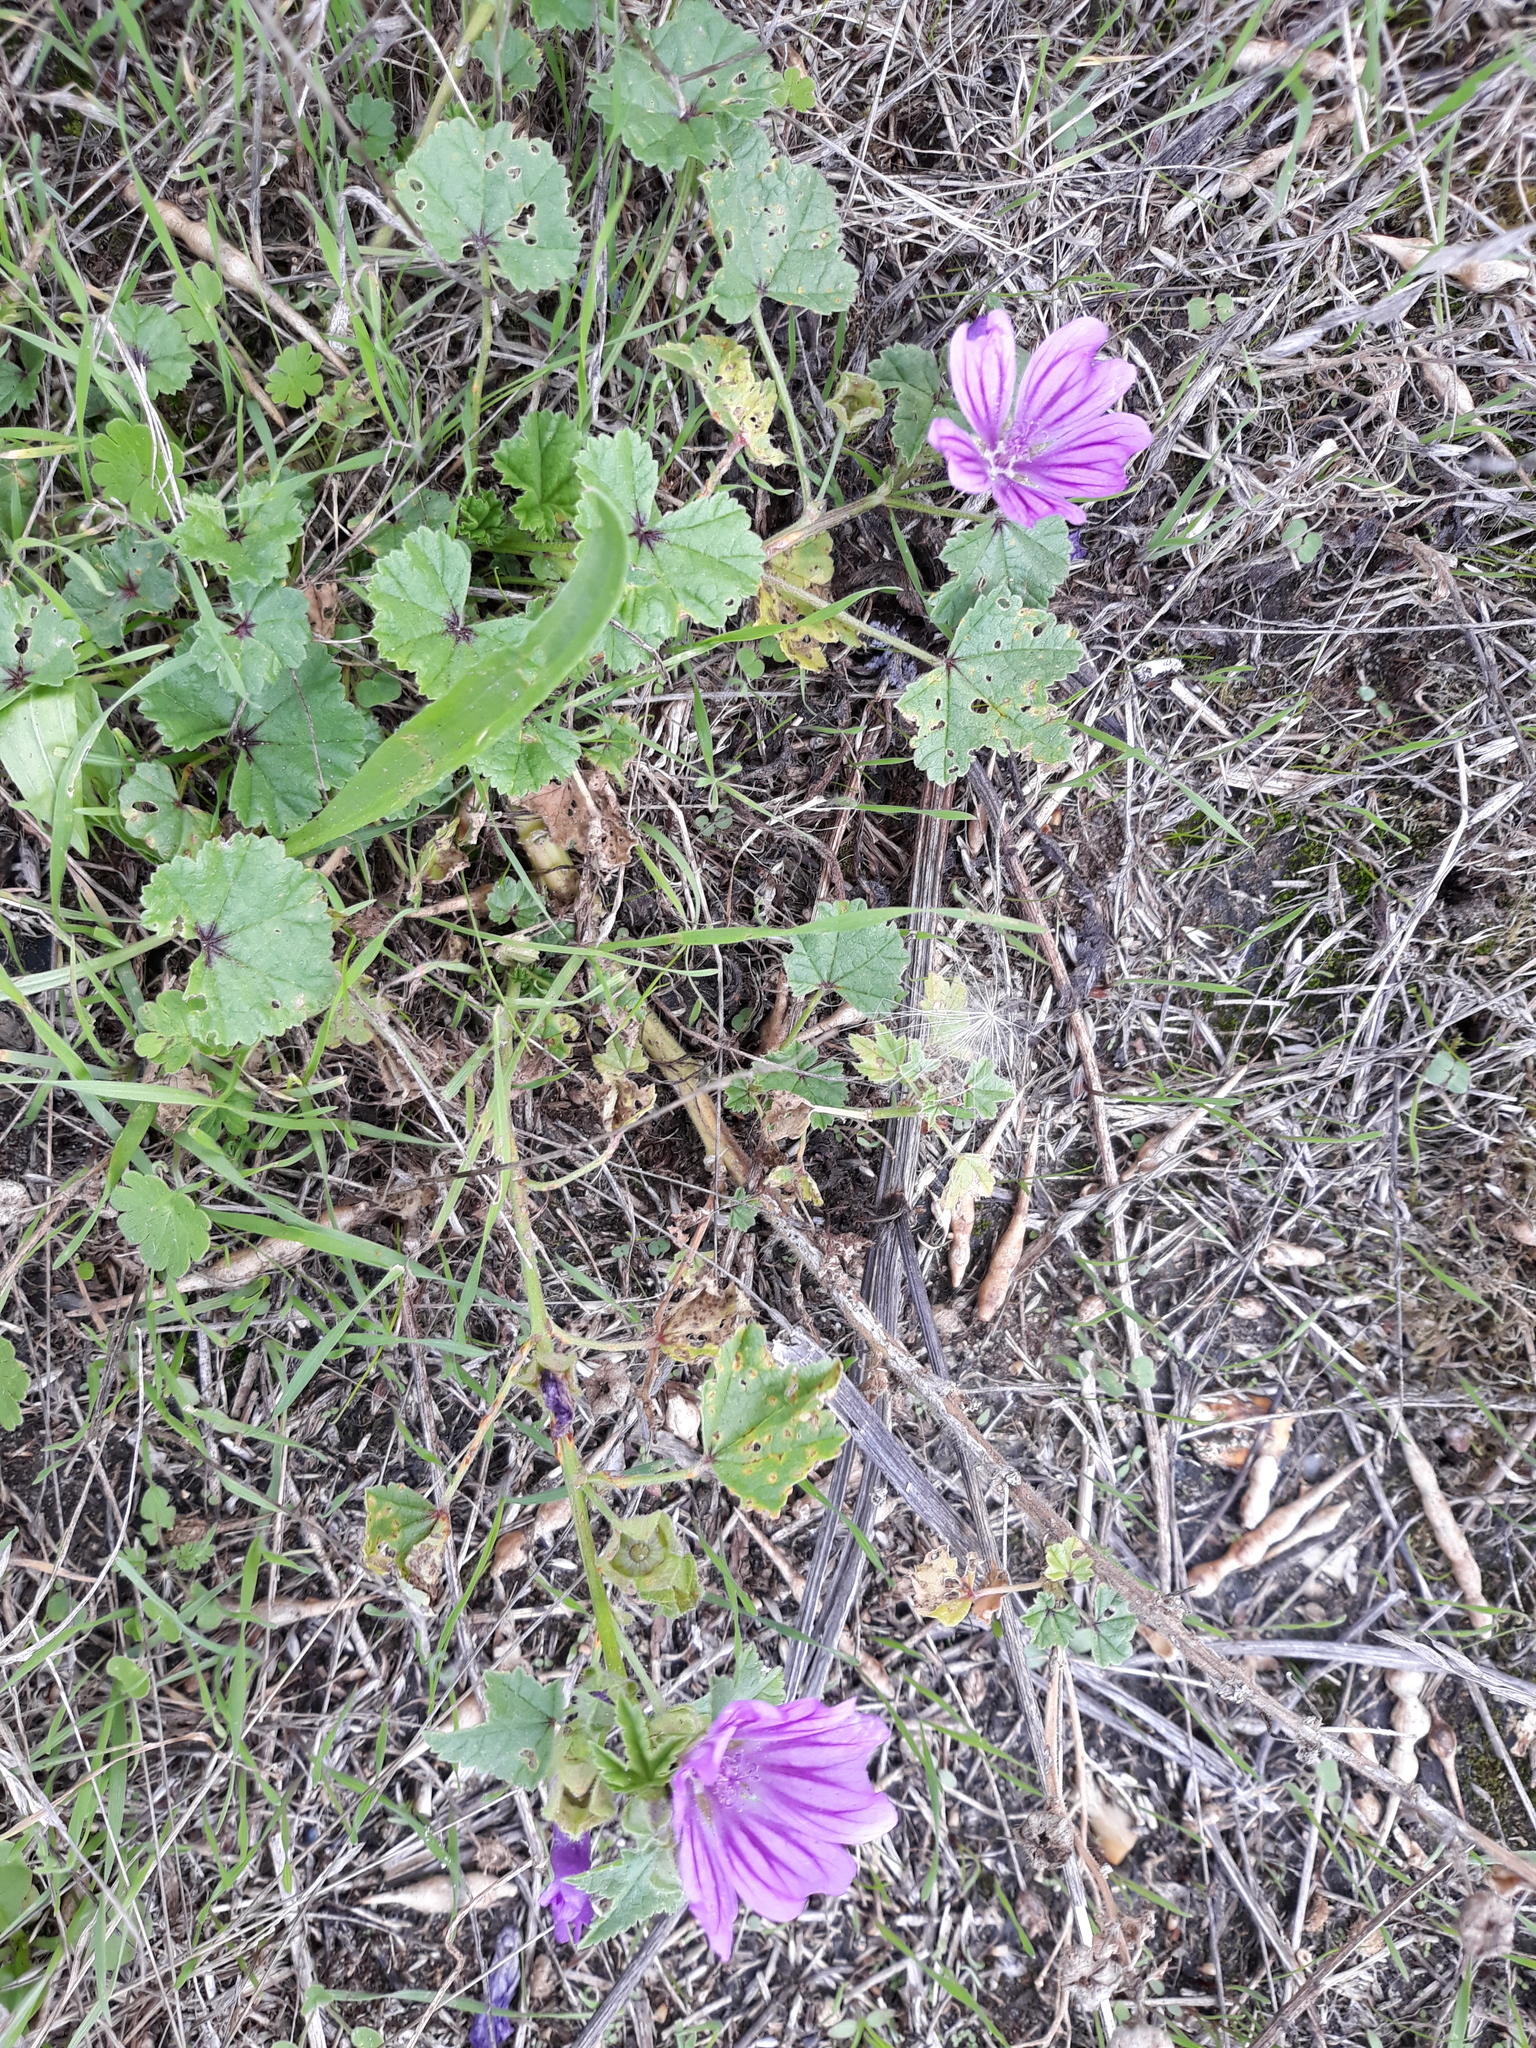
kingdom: Plantae
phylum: Tracheophyta
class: Magnoliopsida
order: Malvales
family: Malvaceae
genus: Malva
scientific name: Malva sylvestris
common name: Common mallow
